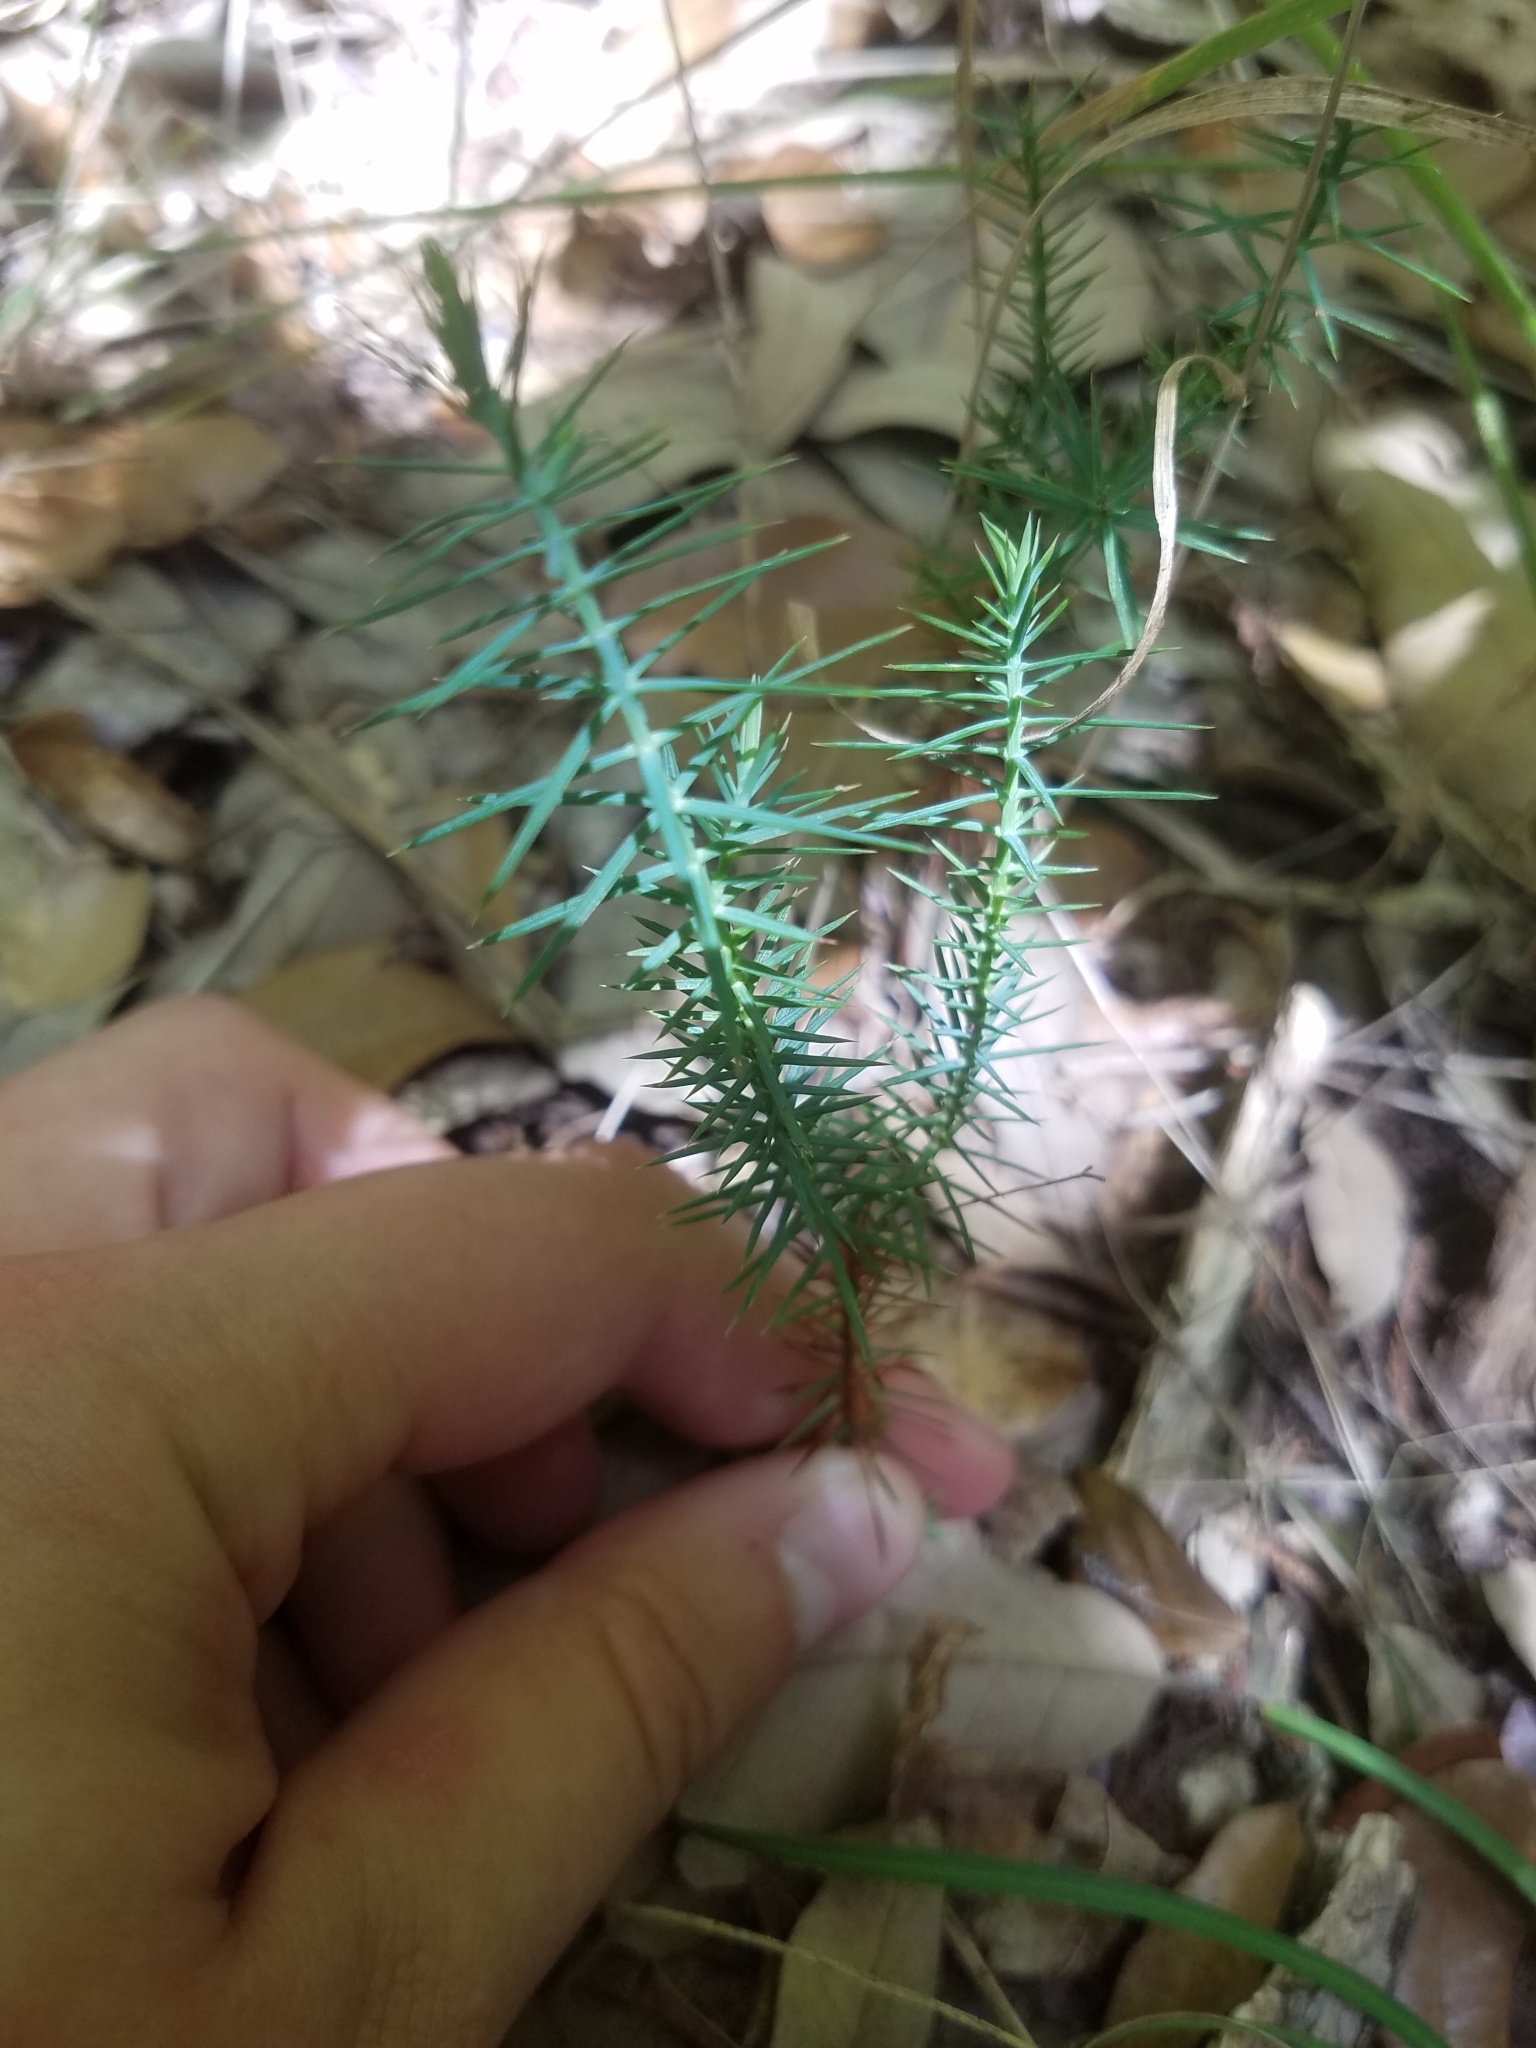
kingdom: Plantae
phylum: Tracheophyta
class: Pinopsida
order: Pinales
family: Cupressaceae
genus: Juniperus
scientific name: Juniperus ashei
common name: Mexican juniper
